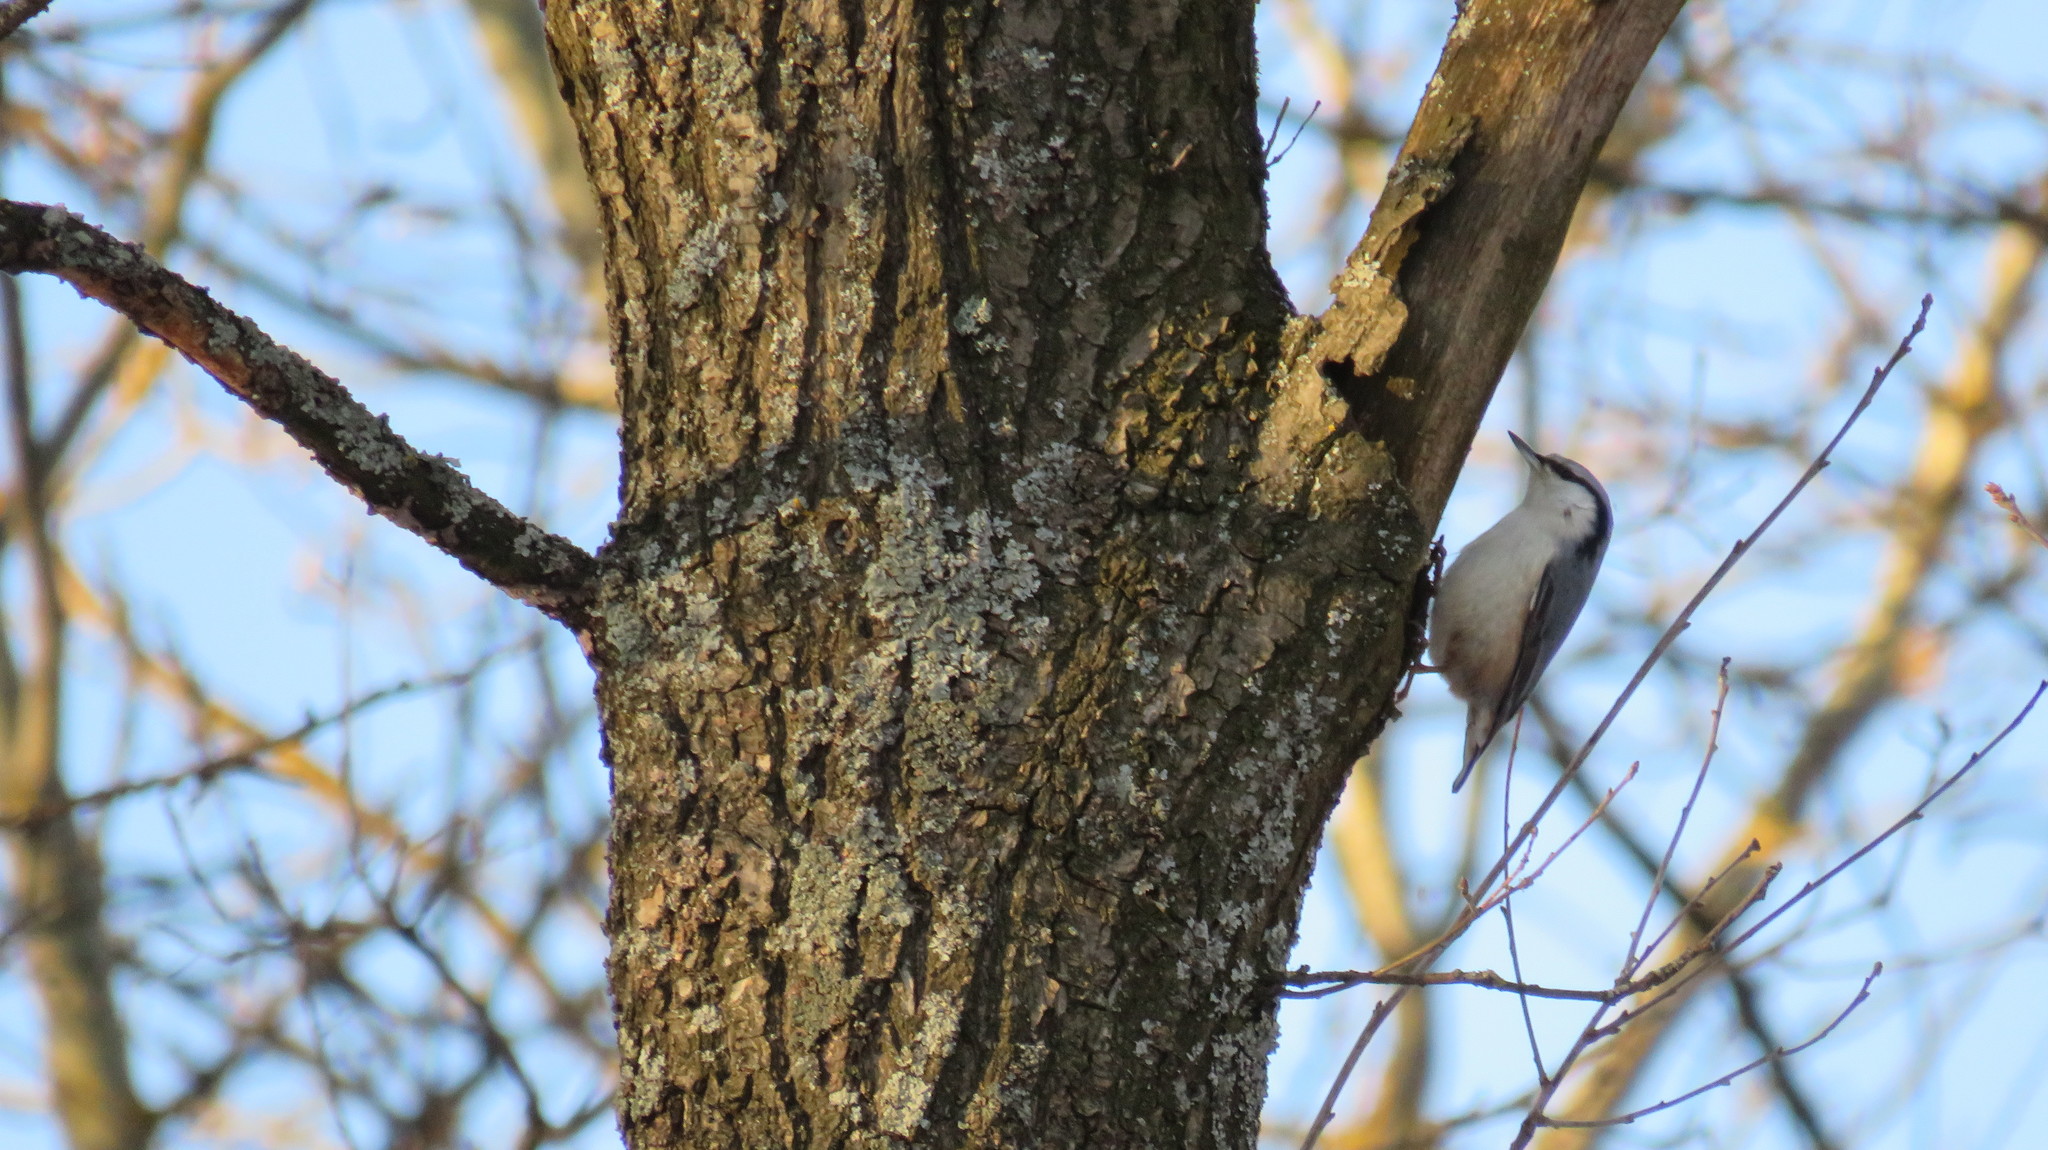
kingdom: Animalia
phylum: Chordata
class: Aves
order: Passeriformes
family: Sittidae
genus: Sitta
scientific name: Sitta europaea
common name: Eurasian nuthatch
